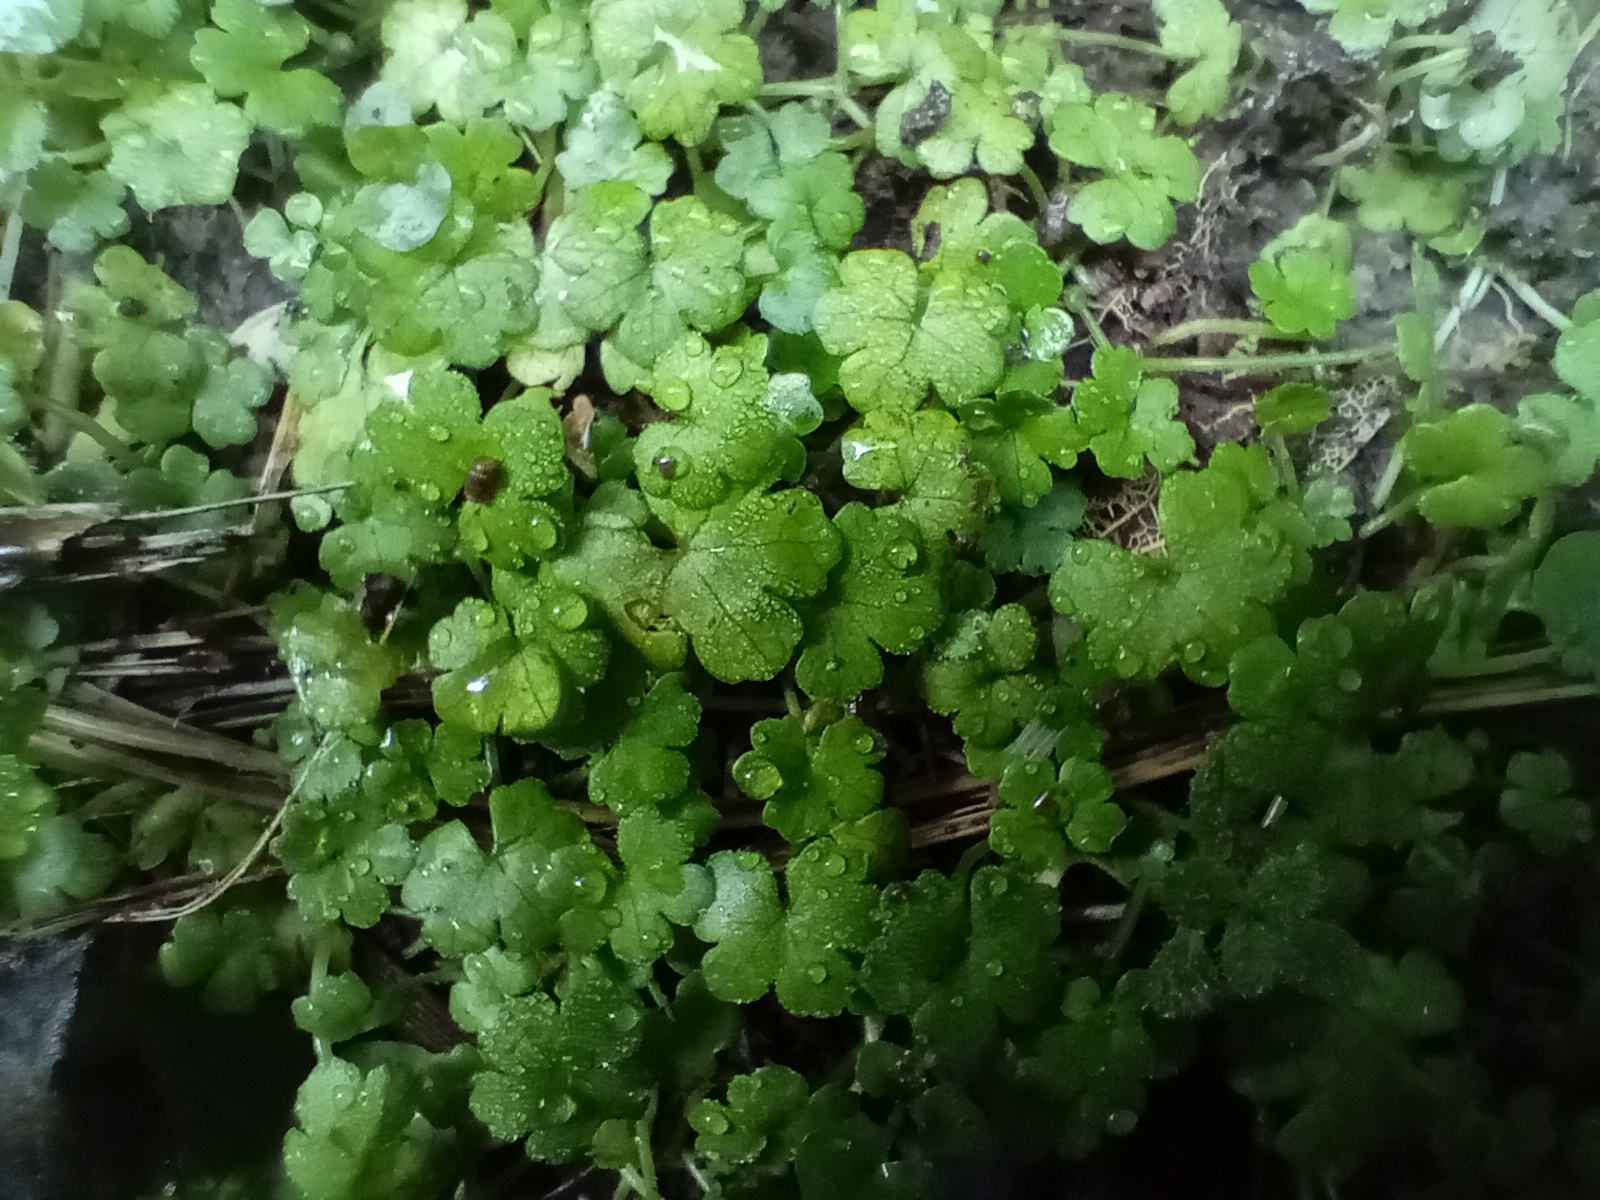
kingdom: Plantae
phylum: Tracheophyta
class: Magnoliopsida
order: Apiales
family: Araliaceae
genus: Hydrocotyle
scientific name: Hydrocotyle heteromeria
